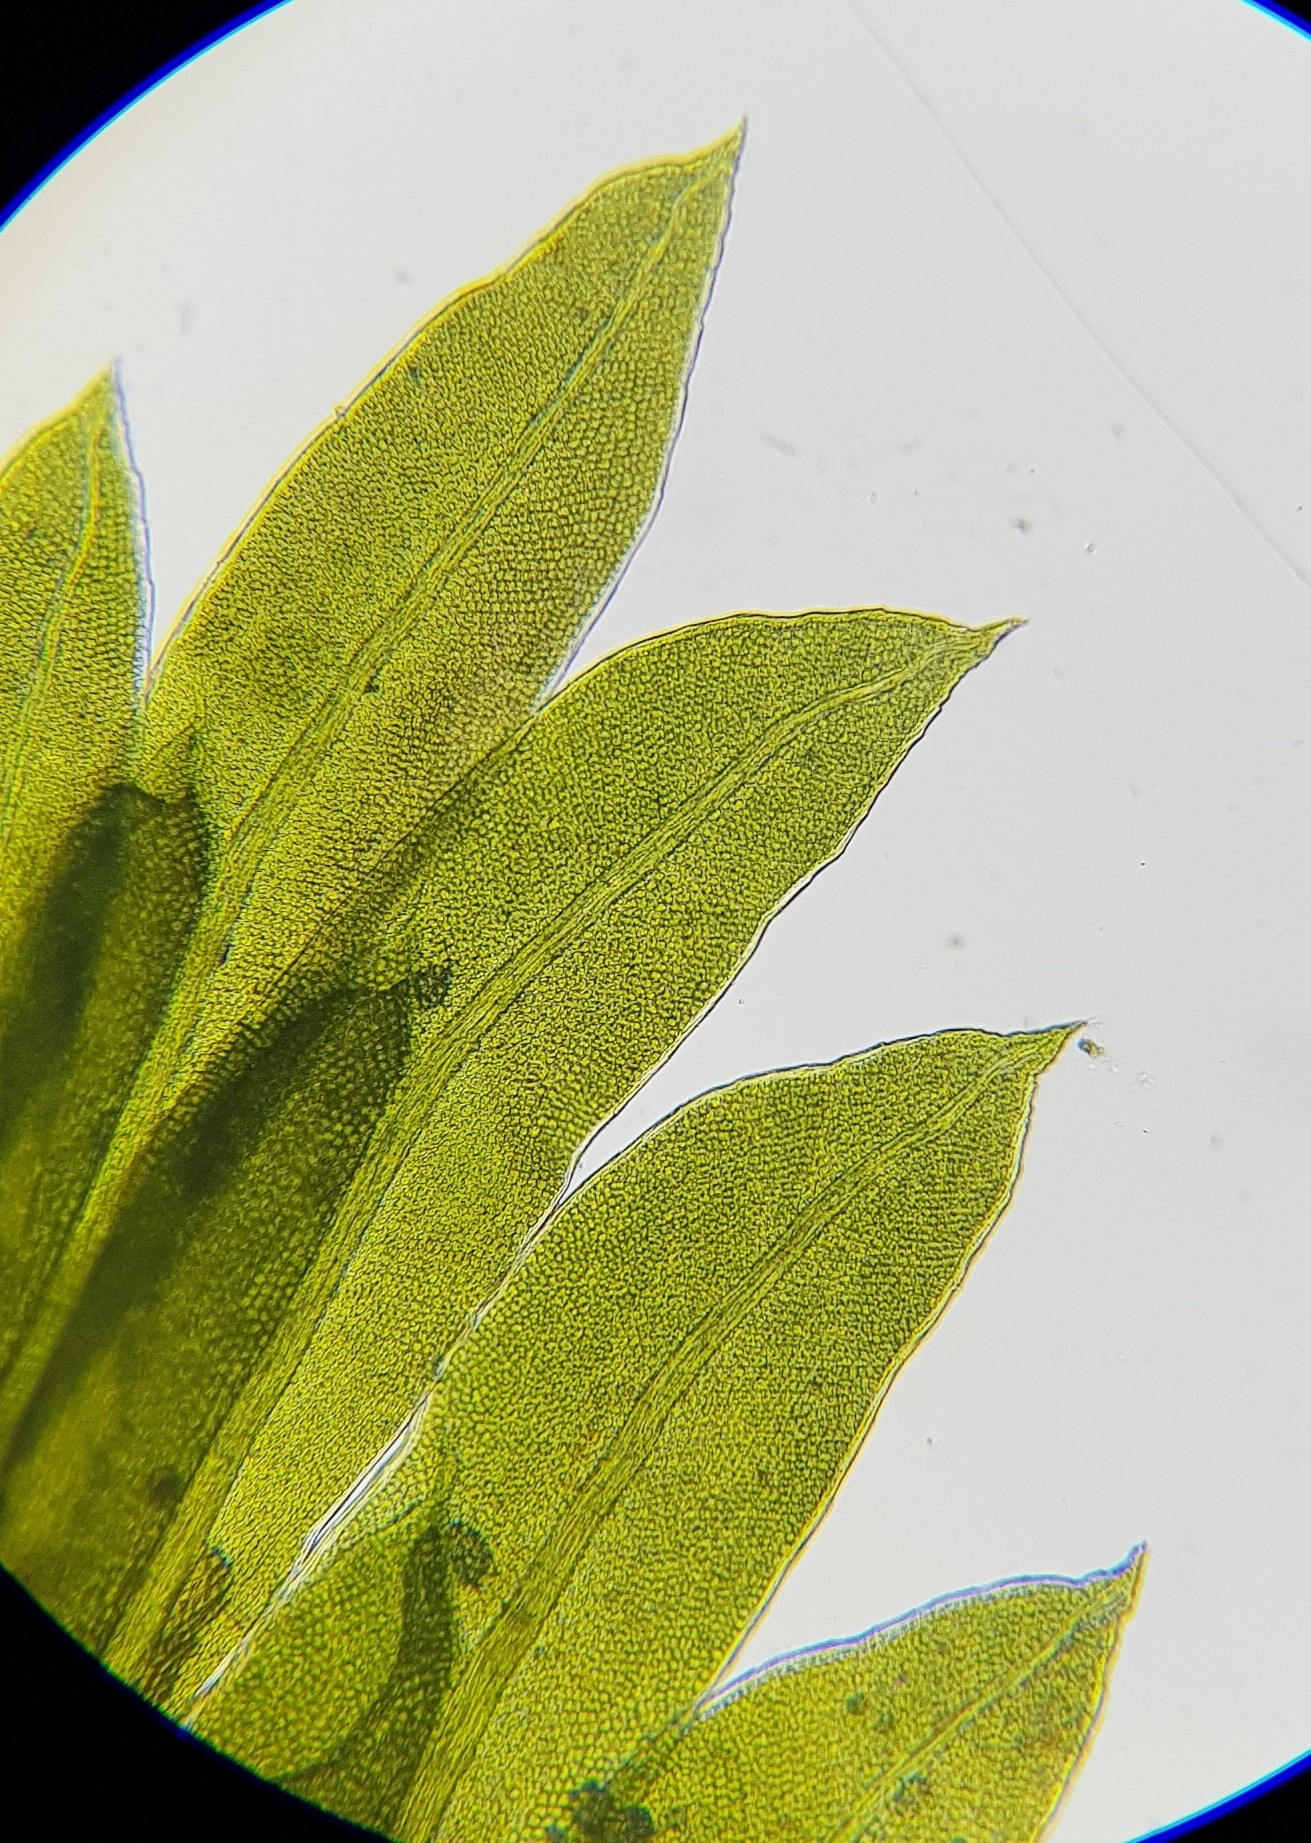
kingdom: Plantae
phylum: Bryophyta
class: Bryopsida
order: Dicranales
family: Fissidentaceae
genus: Fissidens
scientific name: Fissidens bryoides
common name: Lesser pocket moss
